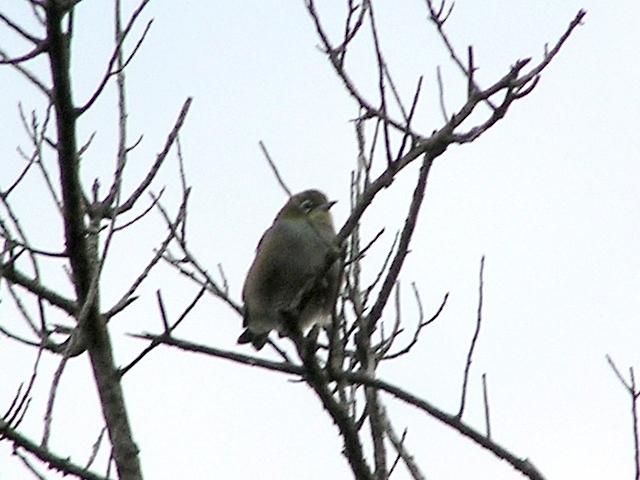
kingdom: Animalia
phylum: Chordata
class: Aves
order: Passeriformes
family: Zosteropidae
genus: Zosterops
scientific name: Zosterops lateralis
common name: Silvereye
